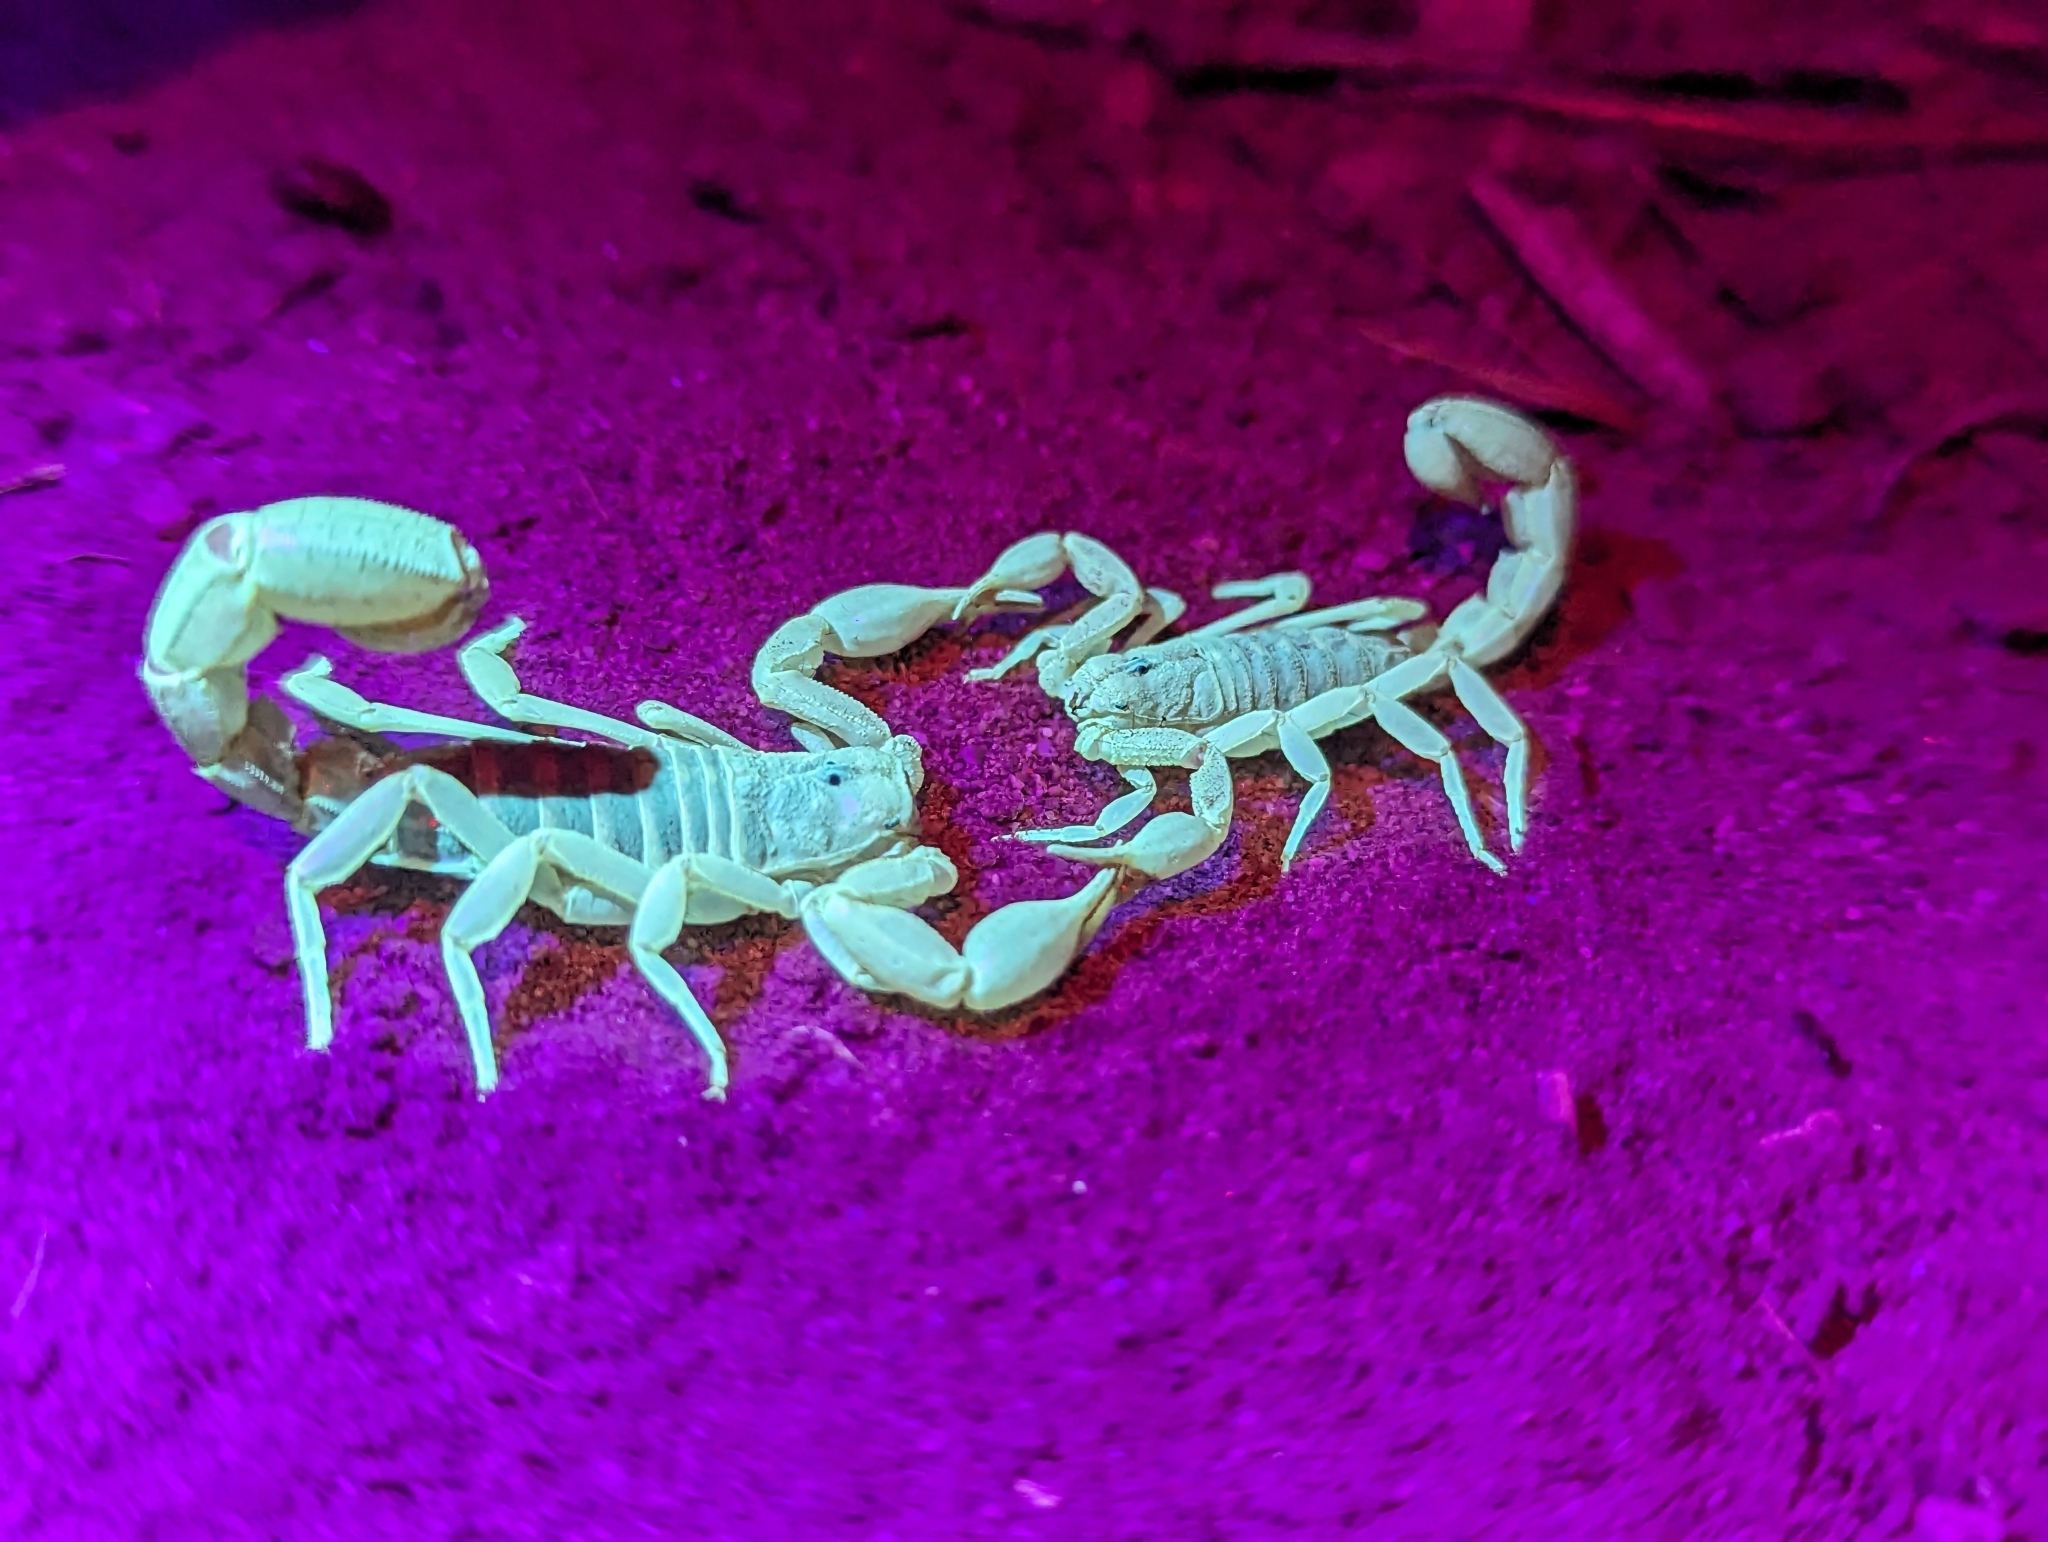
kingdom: Animalia
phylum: Arthropoda
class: Arachnida
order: Scorpiones
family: Vaejovidae
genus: Paravaejovis
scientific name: Paravaejovis spinigerus
